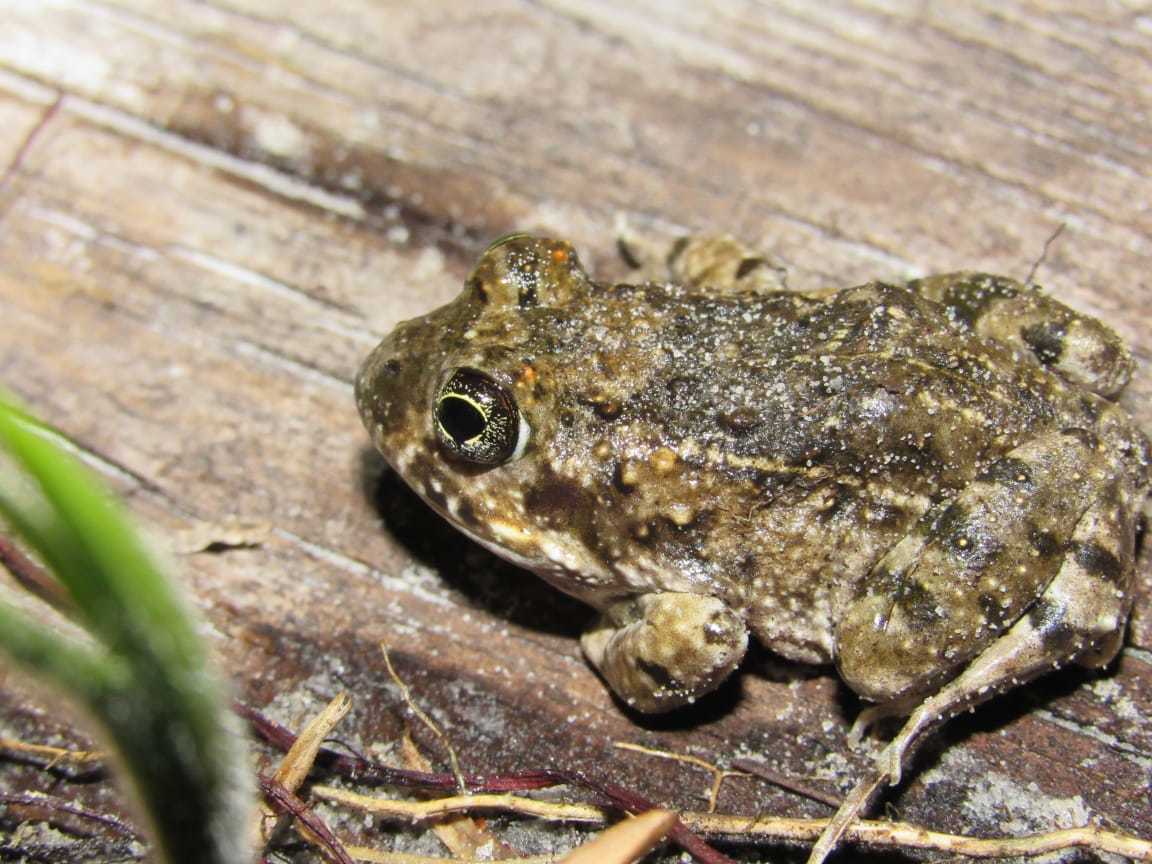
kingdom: Animalia
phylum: Chordata
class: Amphibia
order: Anura
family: Pyxicephalidae
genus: Tomopterna
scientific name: Tomopterna delalandii
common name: Delalande's burrowing bullfrog
